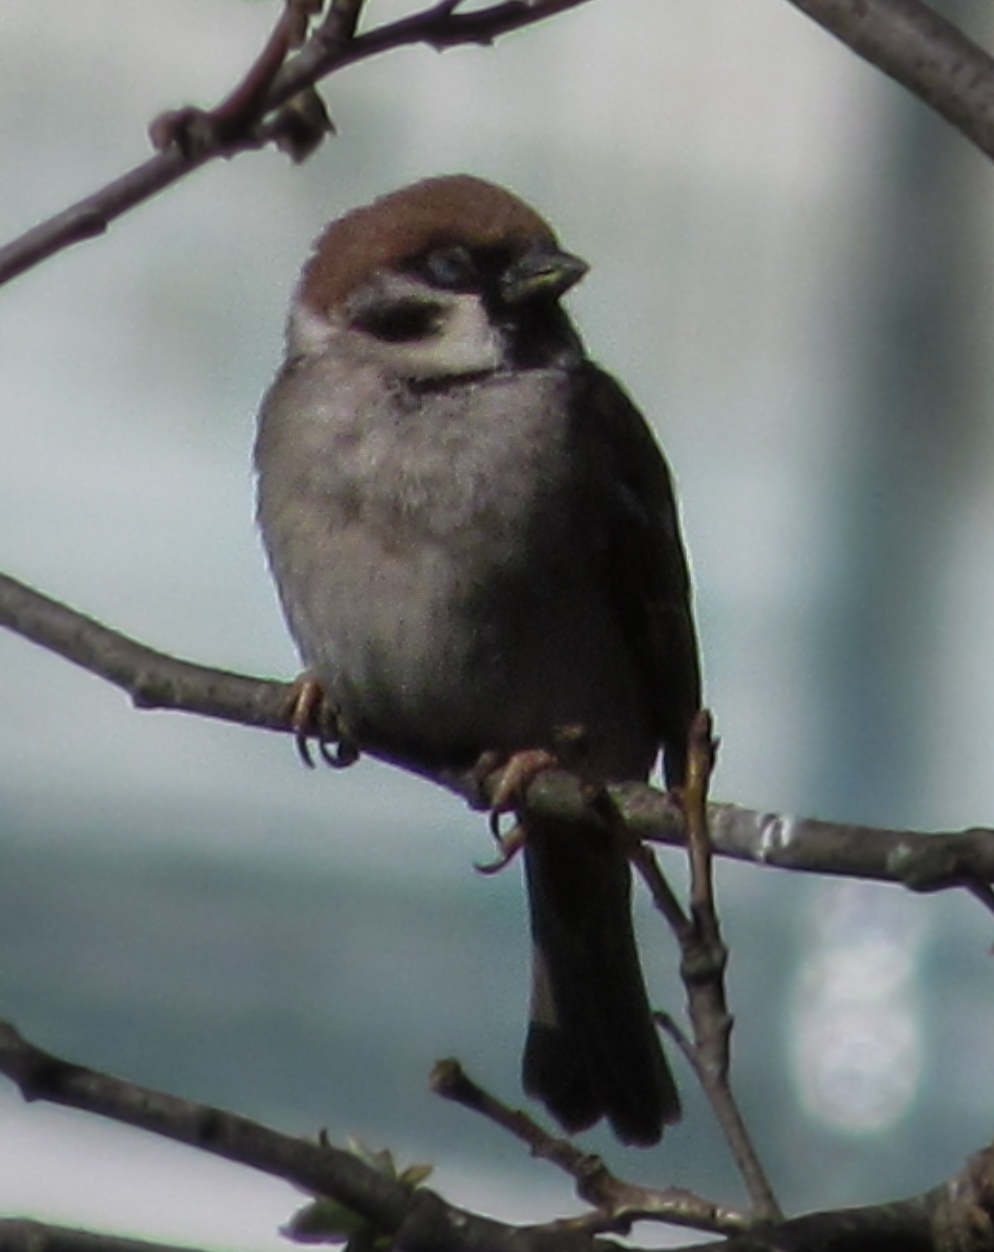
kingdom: Animalia
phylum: Chordata
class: Aves
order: Passeriformes
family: Passeridae
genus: Passer
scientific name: Passer montanus
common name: Eurasian tree sparrow
